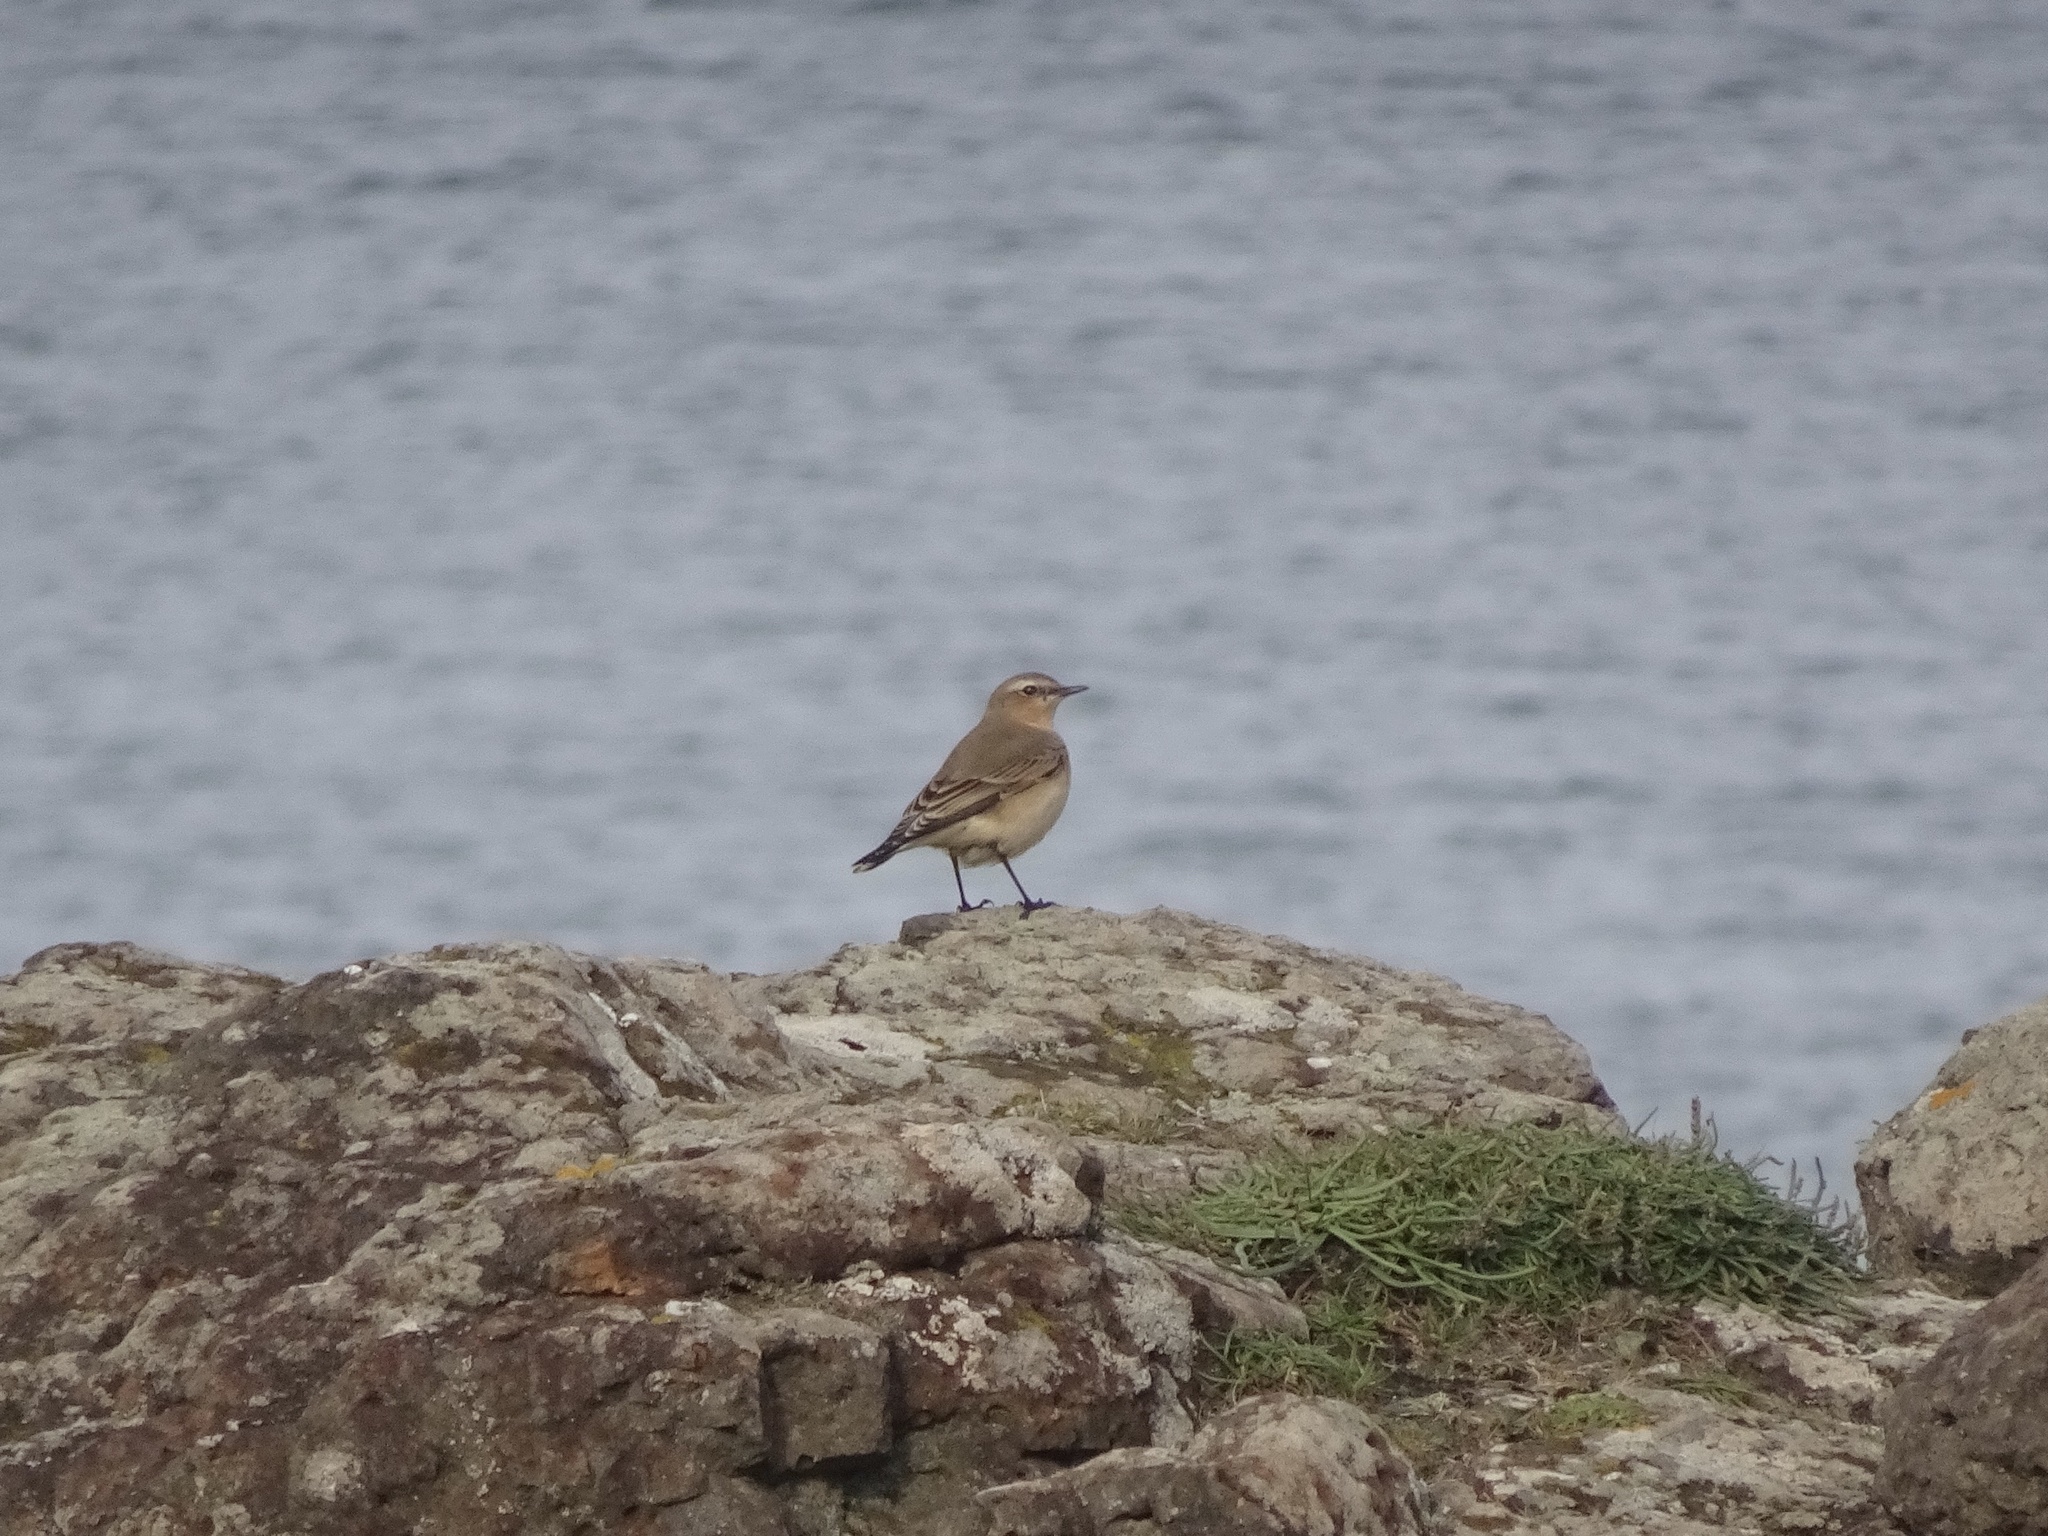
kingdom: Animalia
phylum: Chordata
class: Aves
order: Passeriformes
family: Muscicapidae
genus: Oenanthe
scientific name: Oenanthe oenanthe
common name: Northern wheatear
